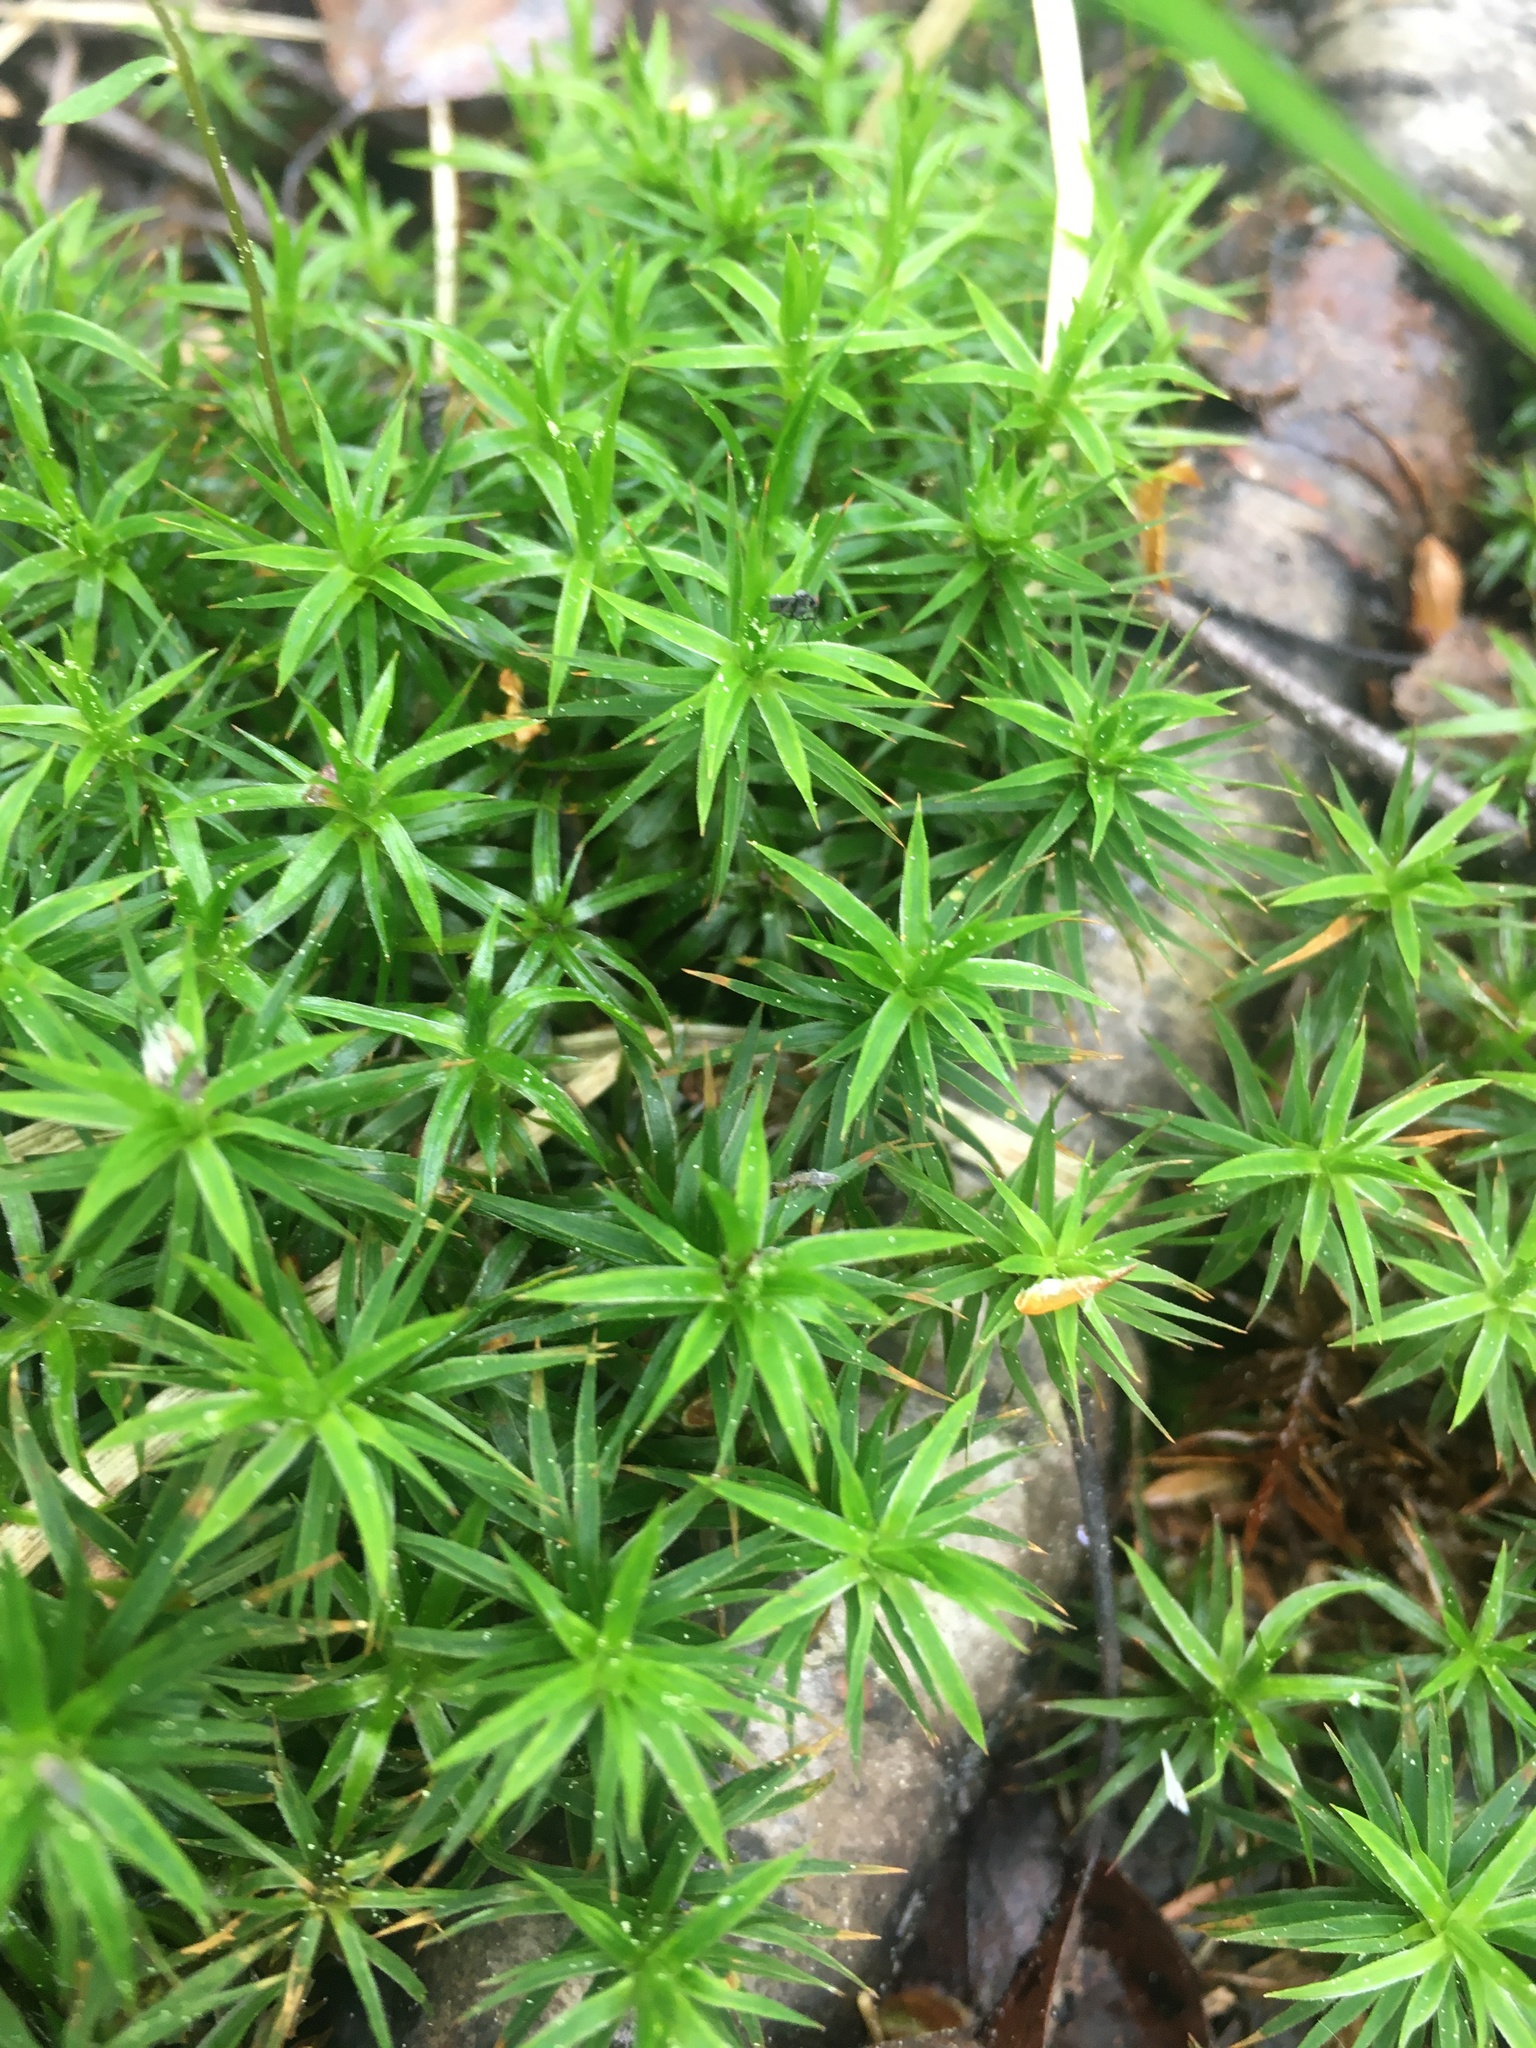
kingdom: Plantae
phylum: Bryophyta
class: Polytrichopsida
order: Polytrichales
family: Polytrichaceae
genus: Polytrichum
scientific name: Polytrichum formosum
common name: Bank haircap moss
